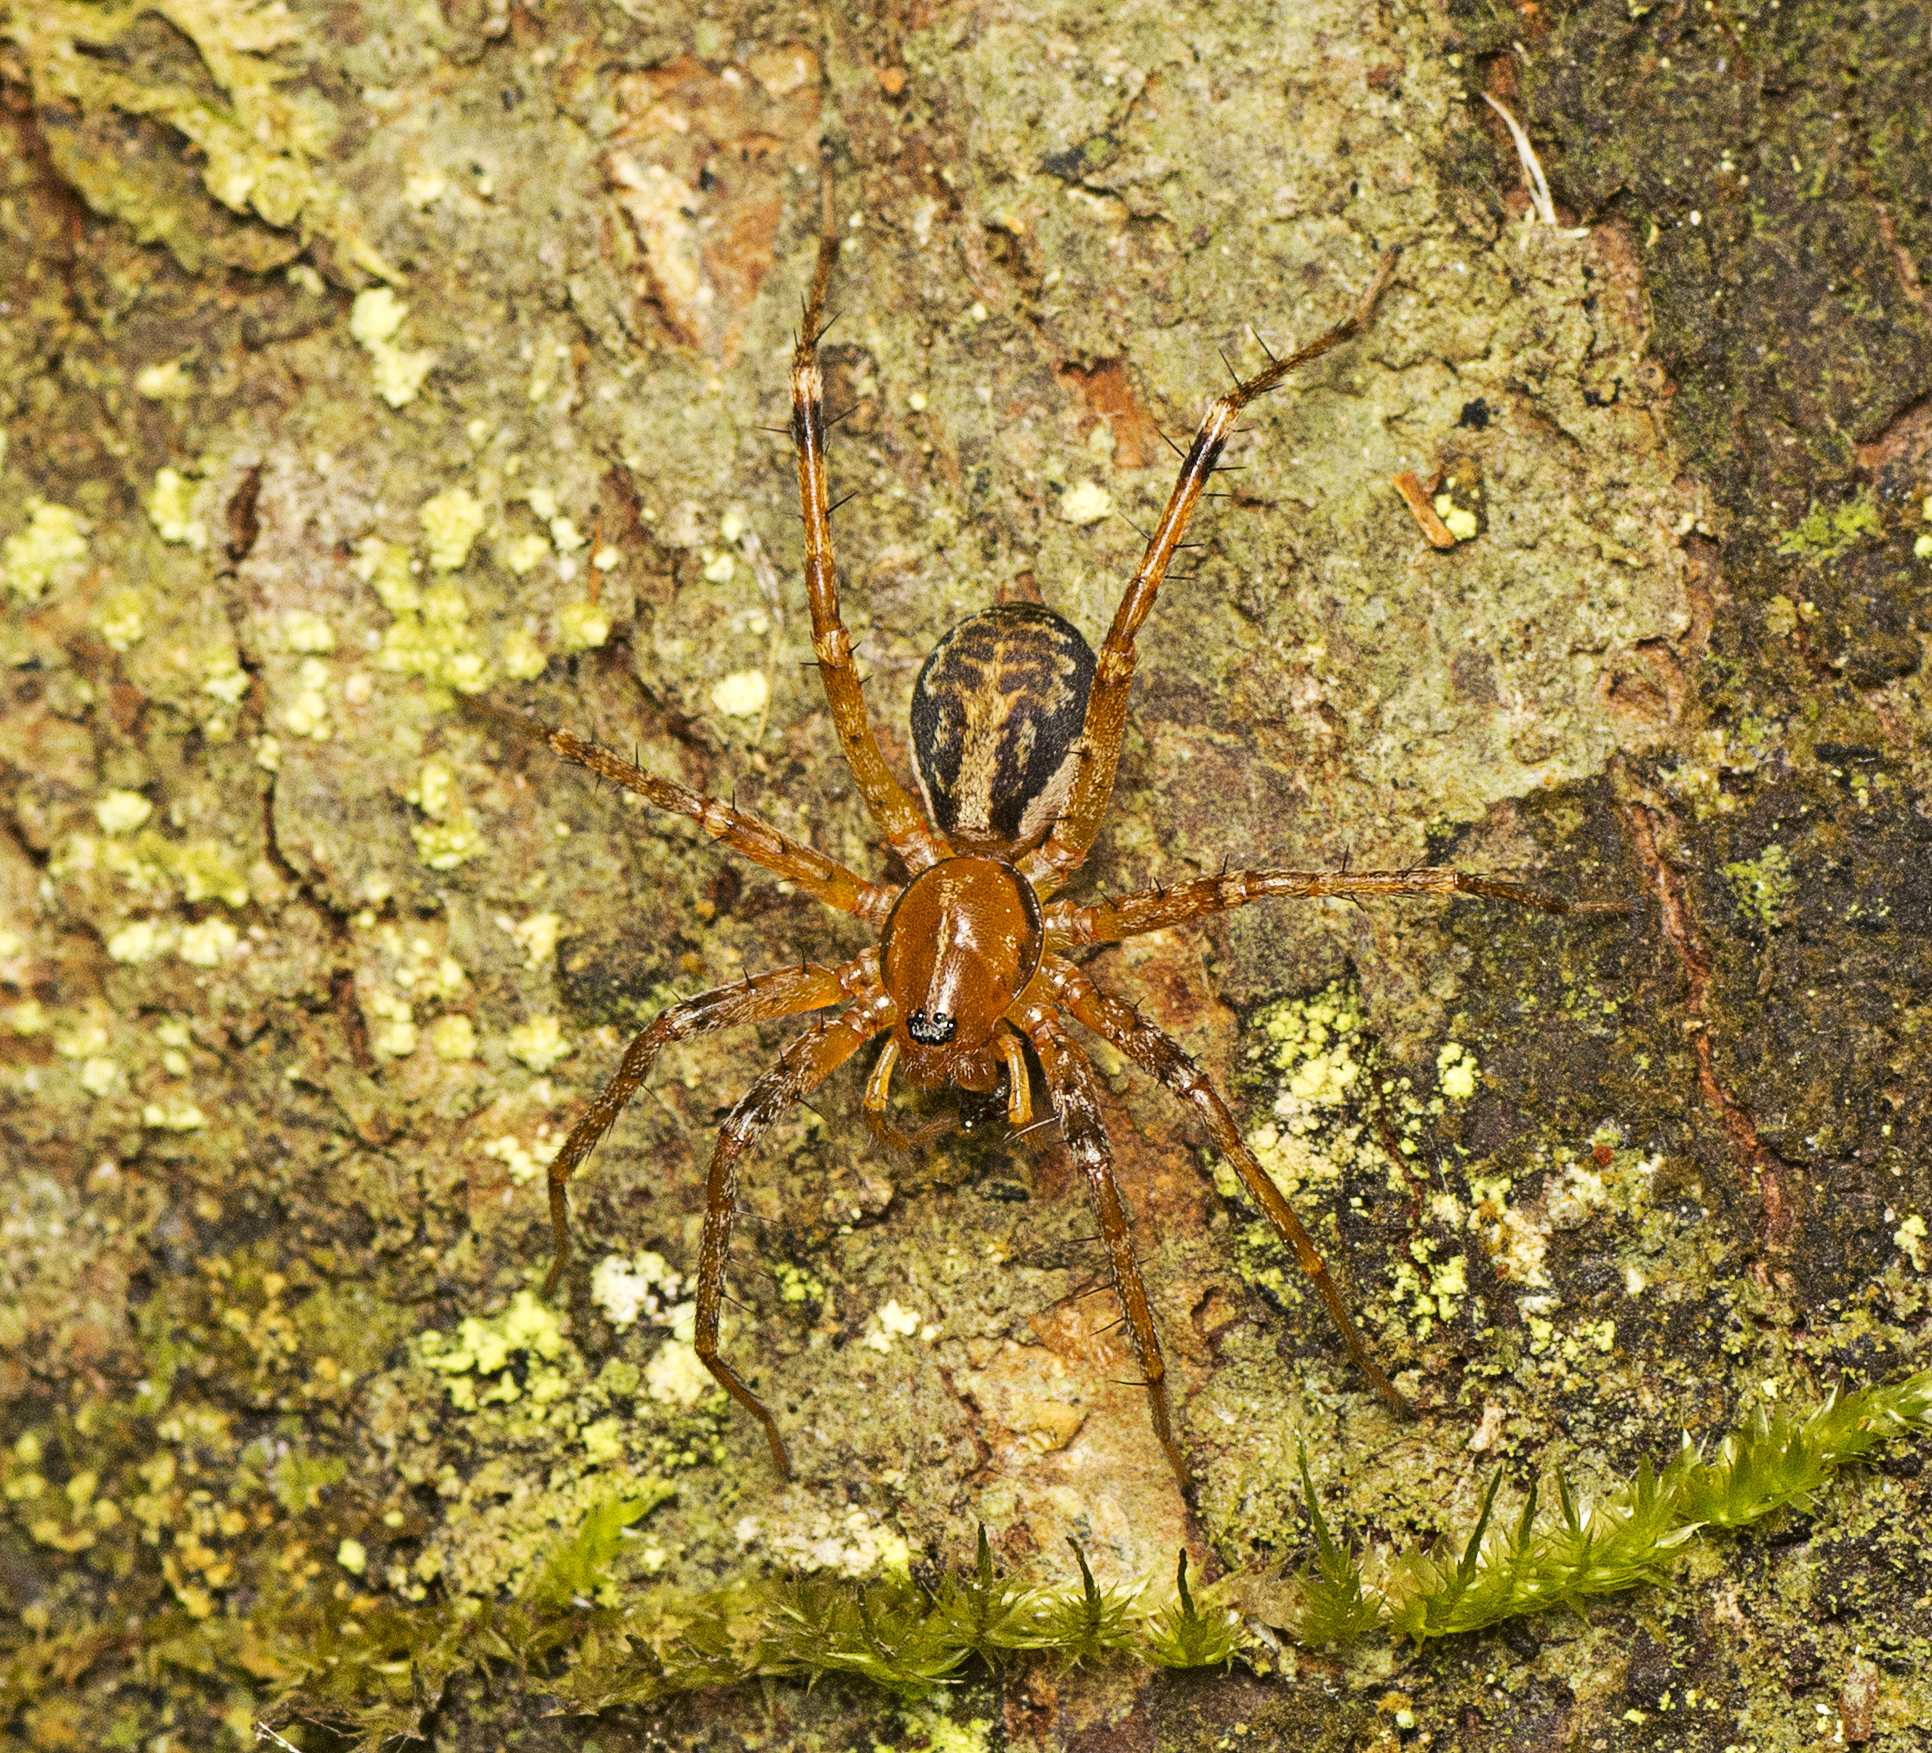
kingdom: Animalia
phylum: Arthropoda
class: Arachnida
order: Araneae
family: Corinnidae
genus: Copa
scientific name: Copa kabana
